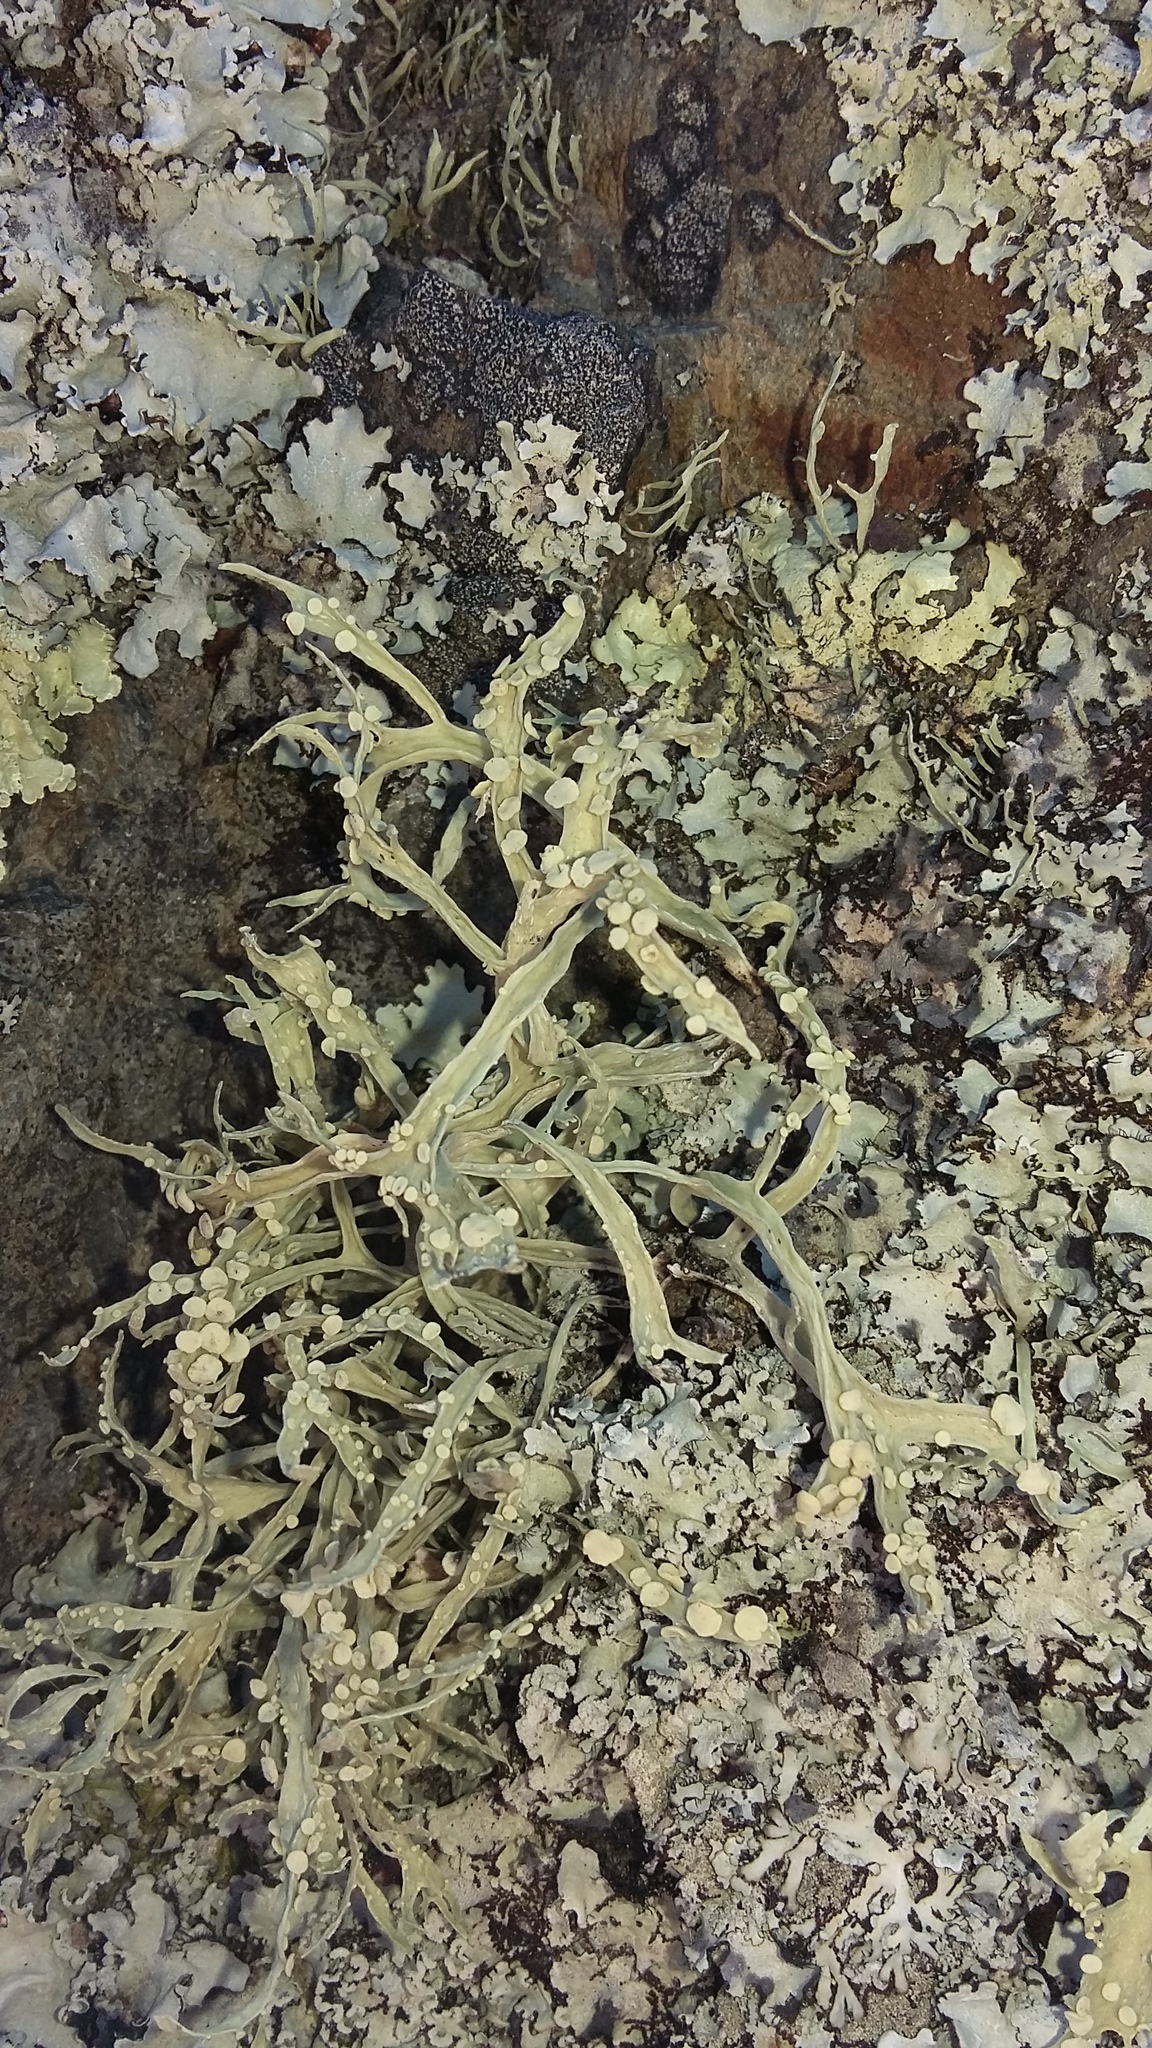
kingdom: Fungi
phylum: Ascomycota
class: Lecanoromycetes
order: Lecanorales
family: Ramalinaceae
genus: Ramalina
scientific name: Ramalina celastri
